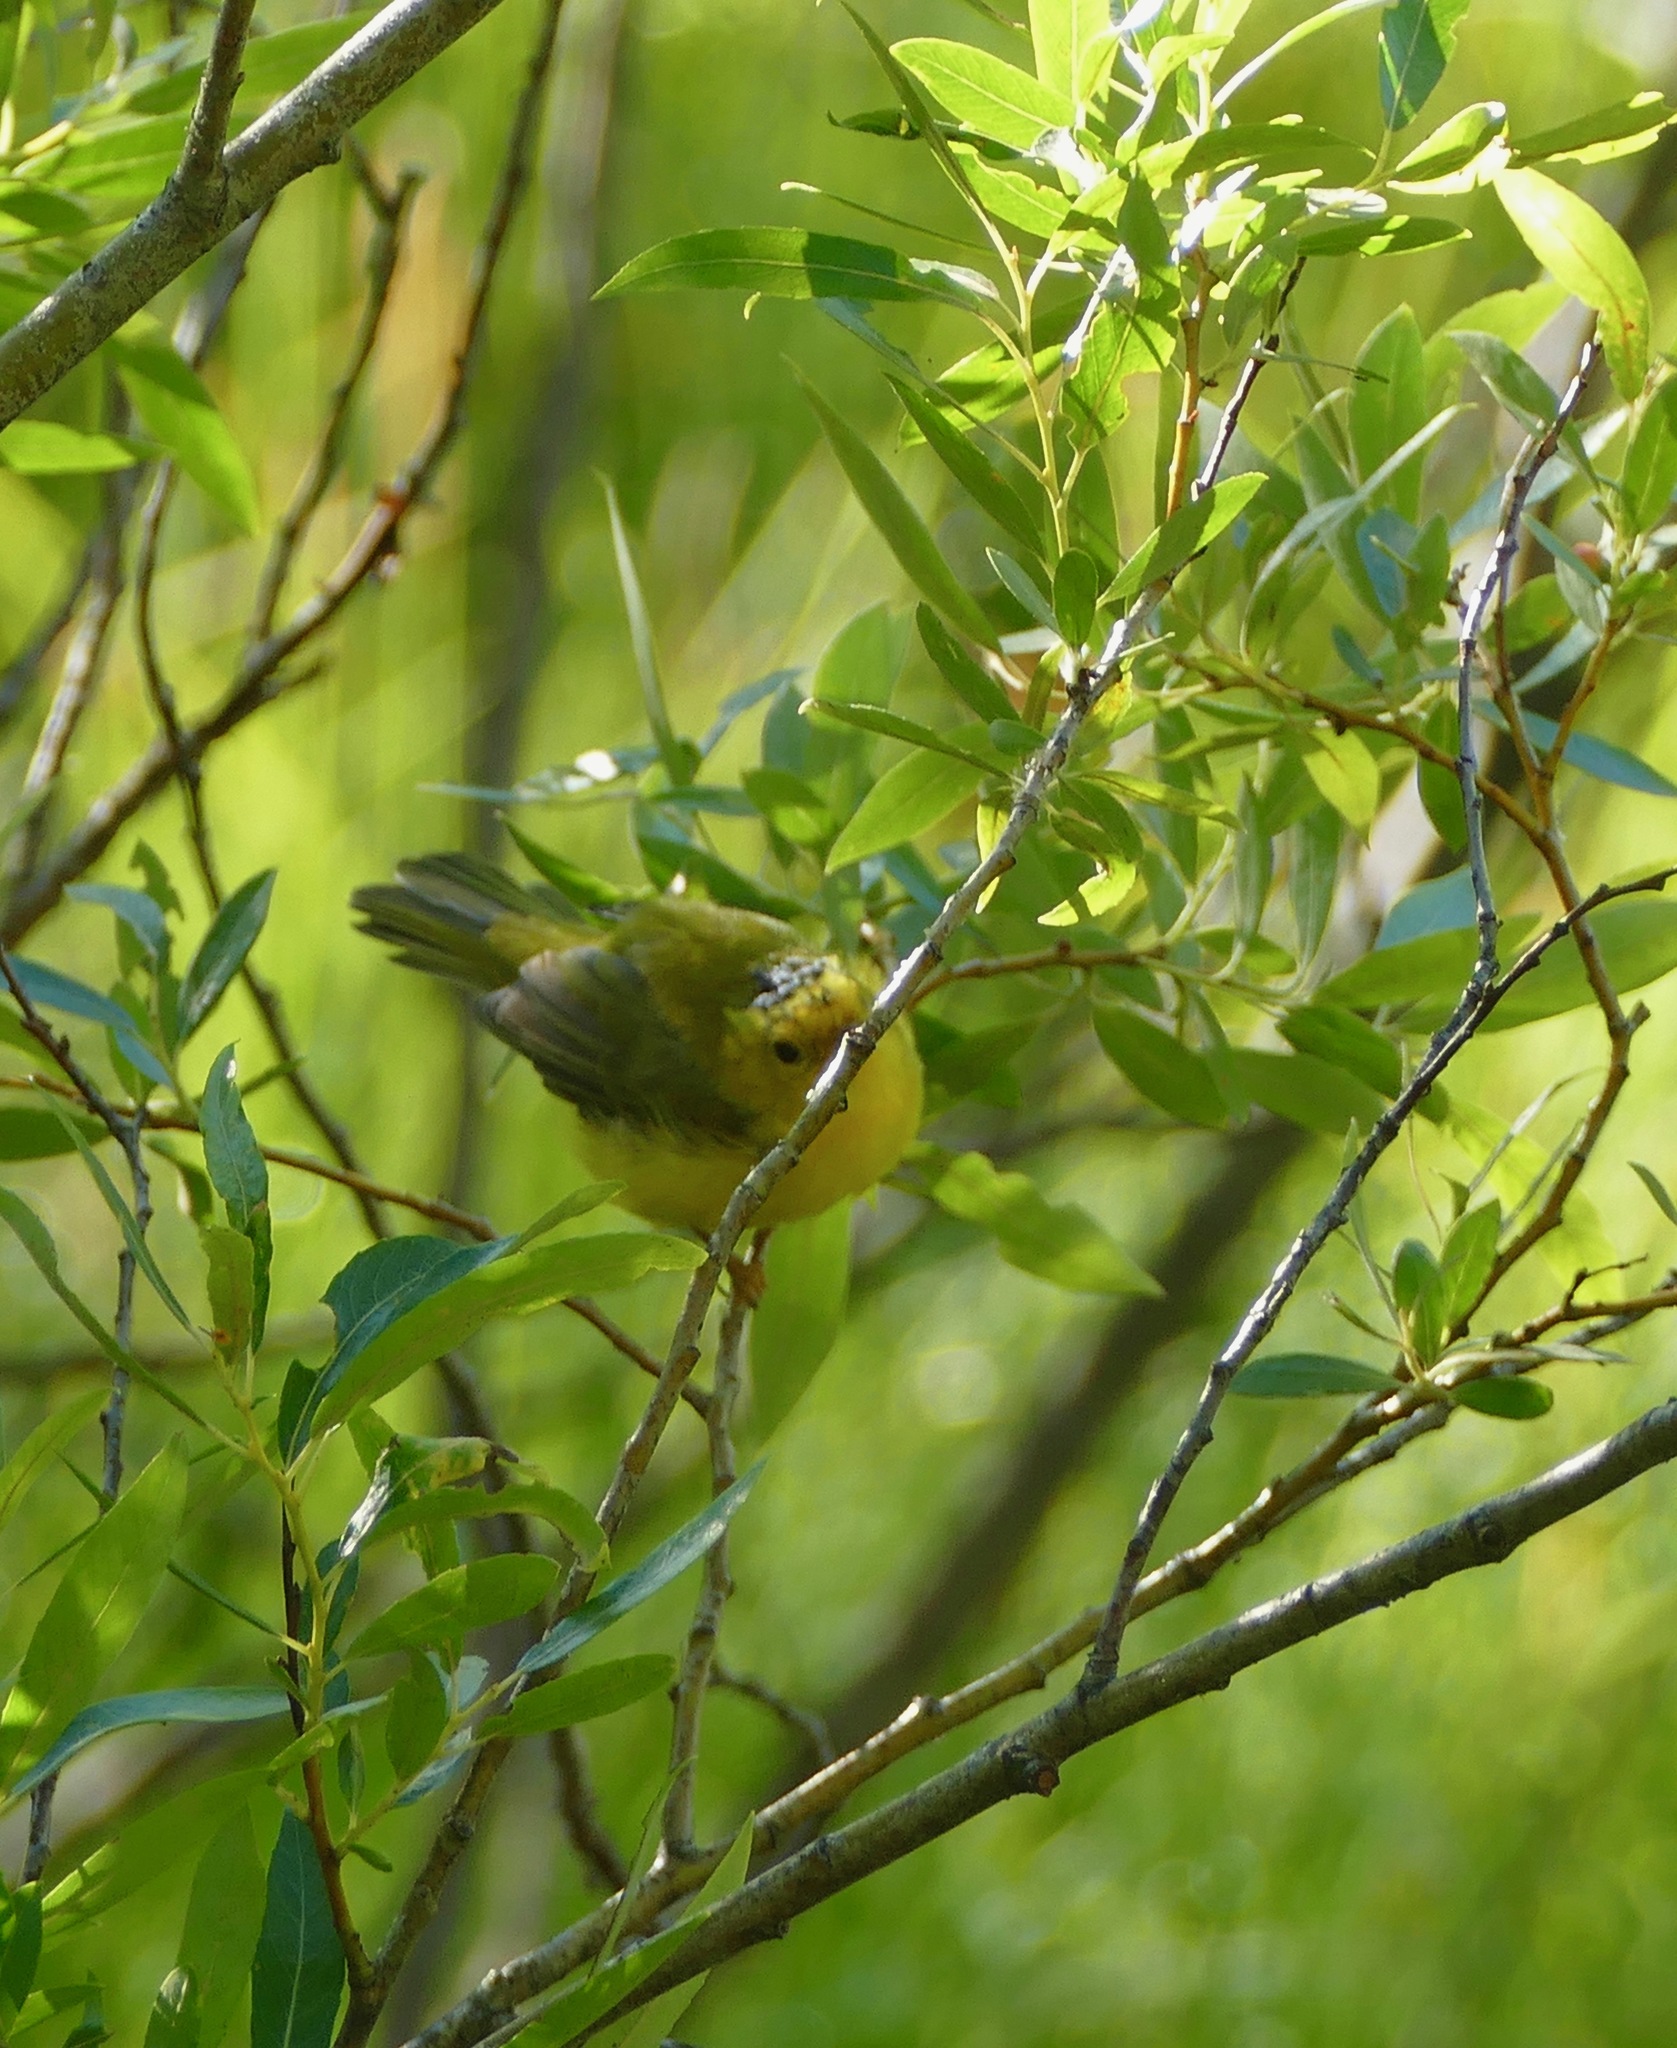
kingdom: Animalia
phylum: Chordata
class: Aves
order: Passeriformes
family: Parulidae
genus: Cardellina
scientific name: Cardellina pusilla
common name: Wilson's warbler
